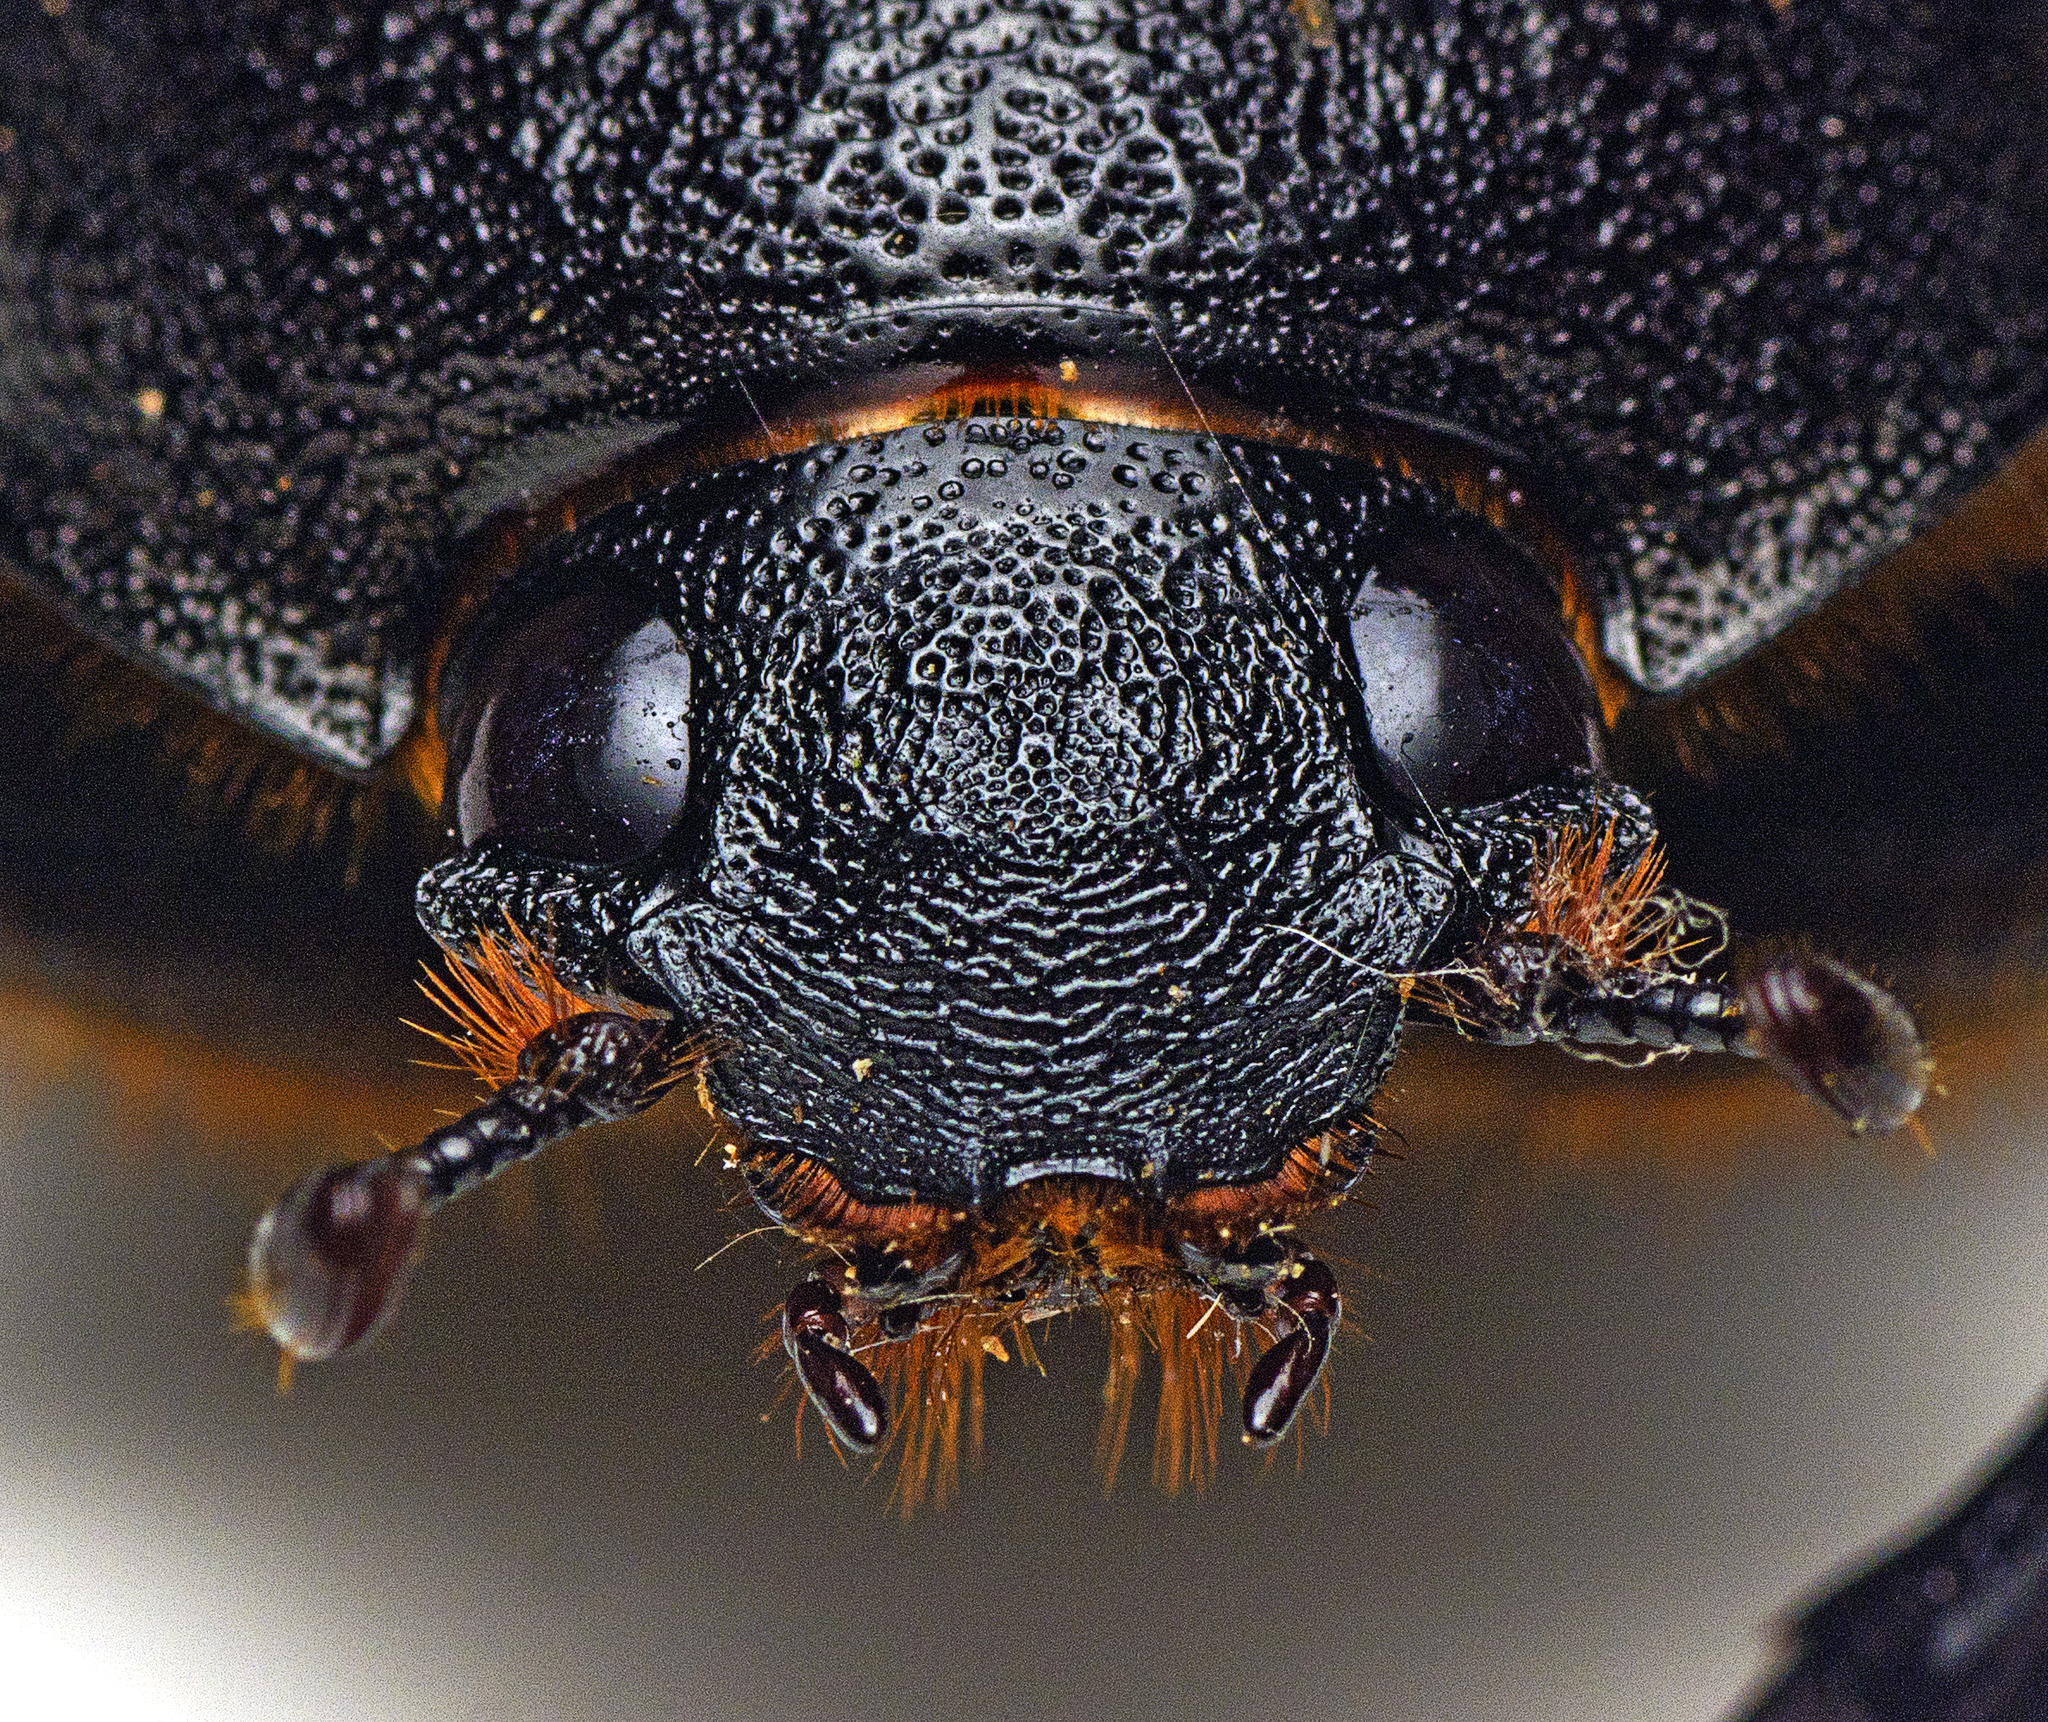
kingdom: Animalia
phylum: Arthropoda
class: Insecta
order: Coleoptera
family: Scarabaeidae
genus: Xylotrupes
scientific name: Xylotrupes australicus
